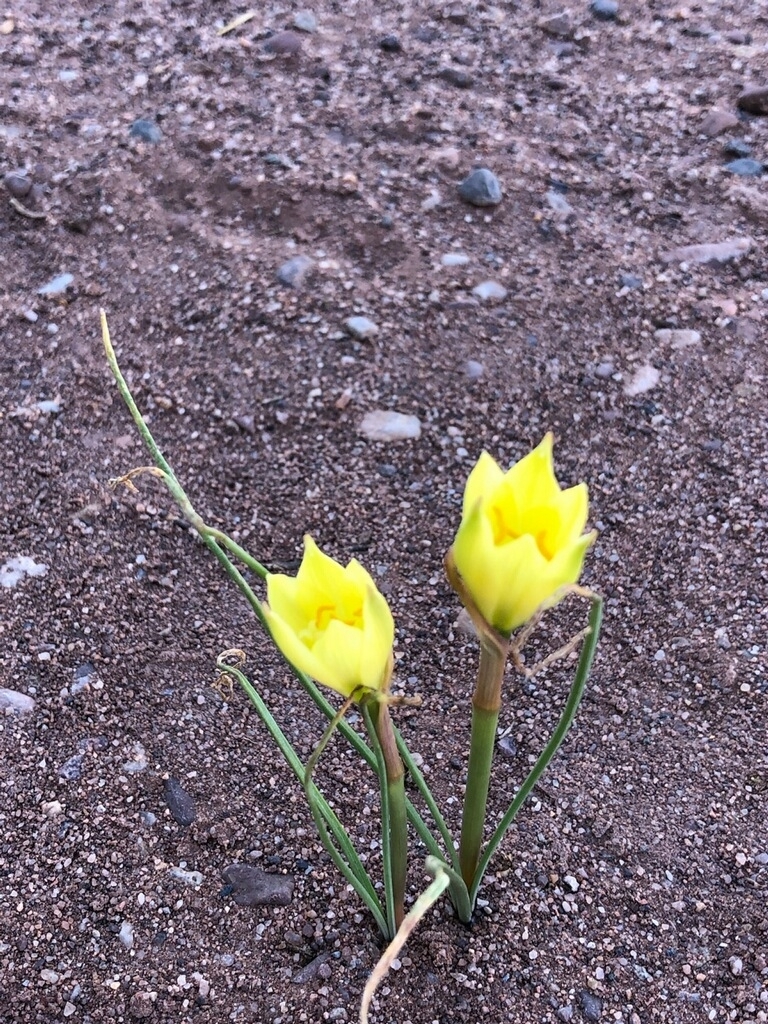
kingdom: Plantae
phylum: Tracheophyta
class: Liliopsida
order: Asparagales
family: Amaryllidaceae
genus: Zephyranthes
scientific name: Zephyranthes longifolia
